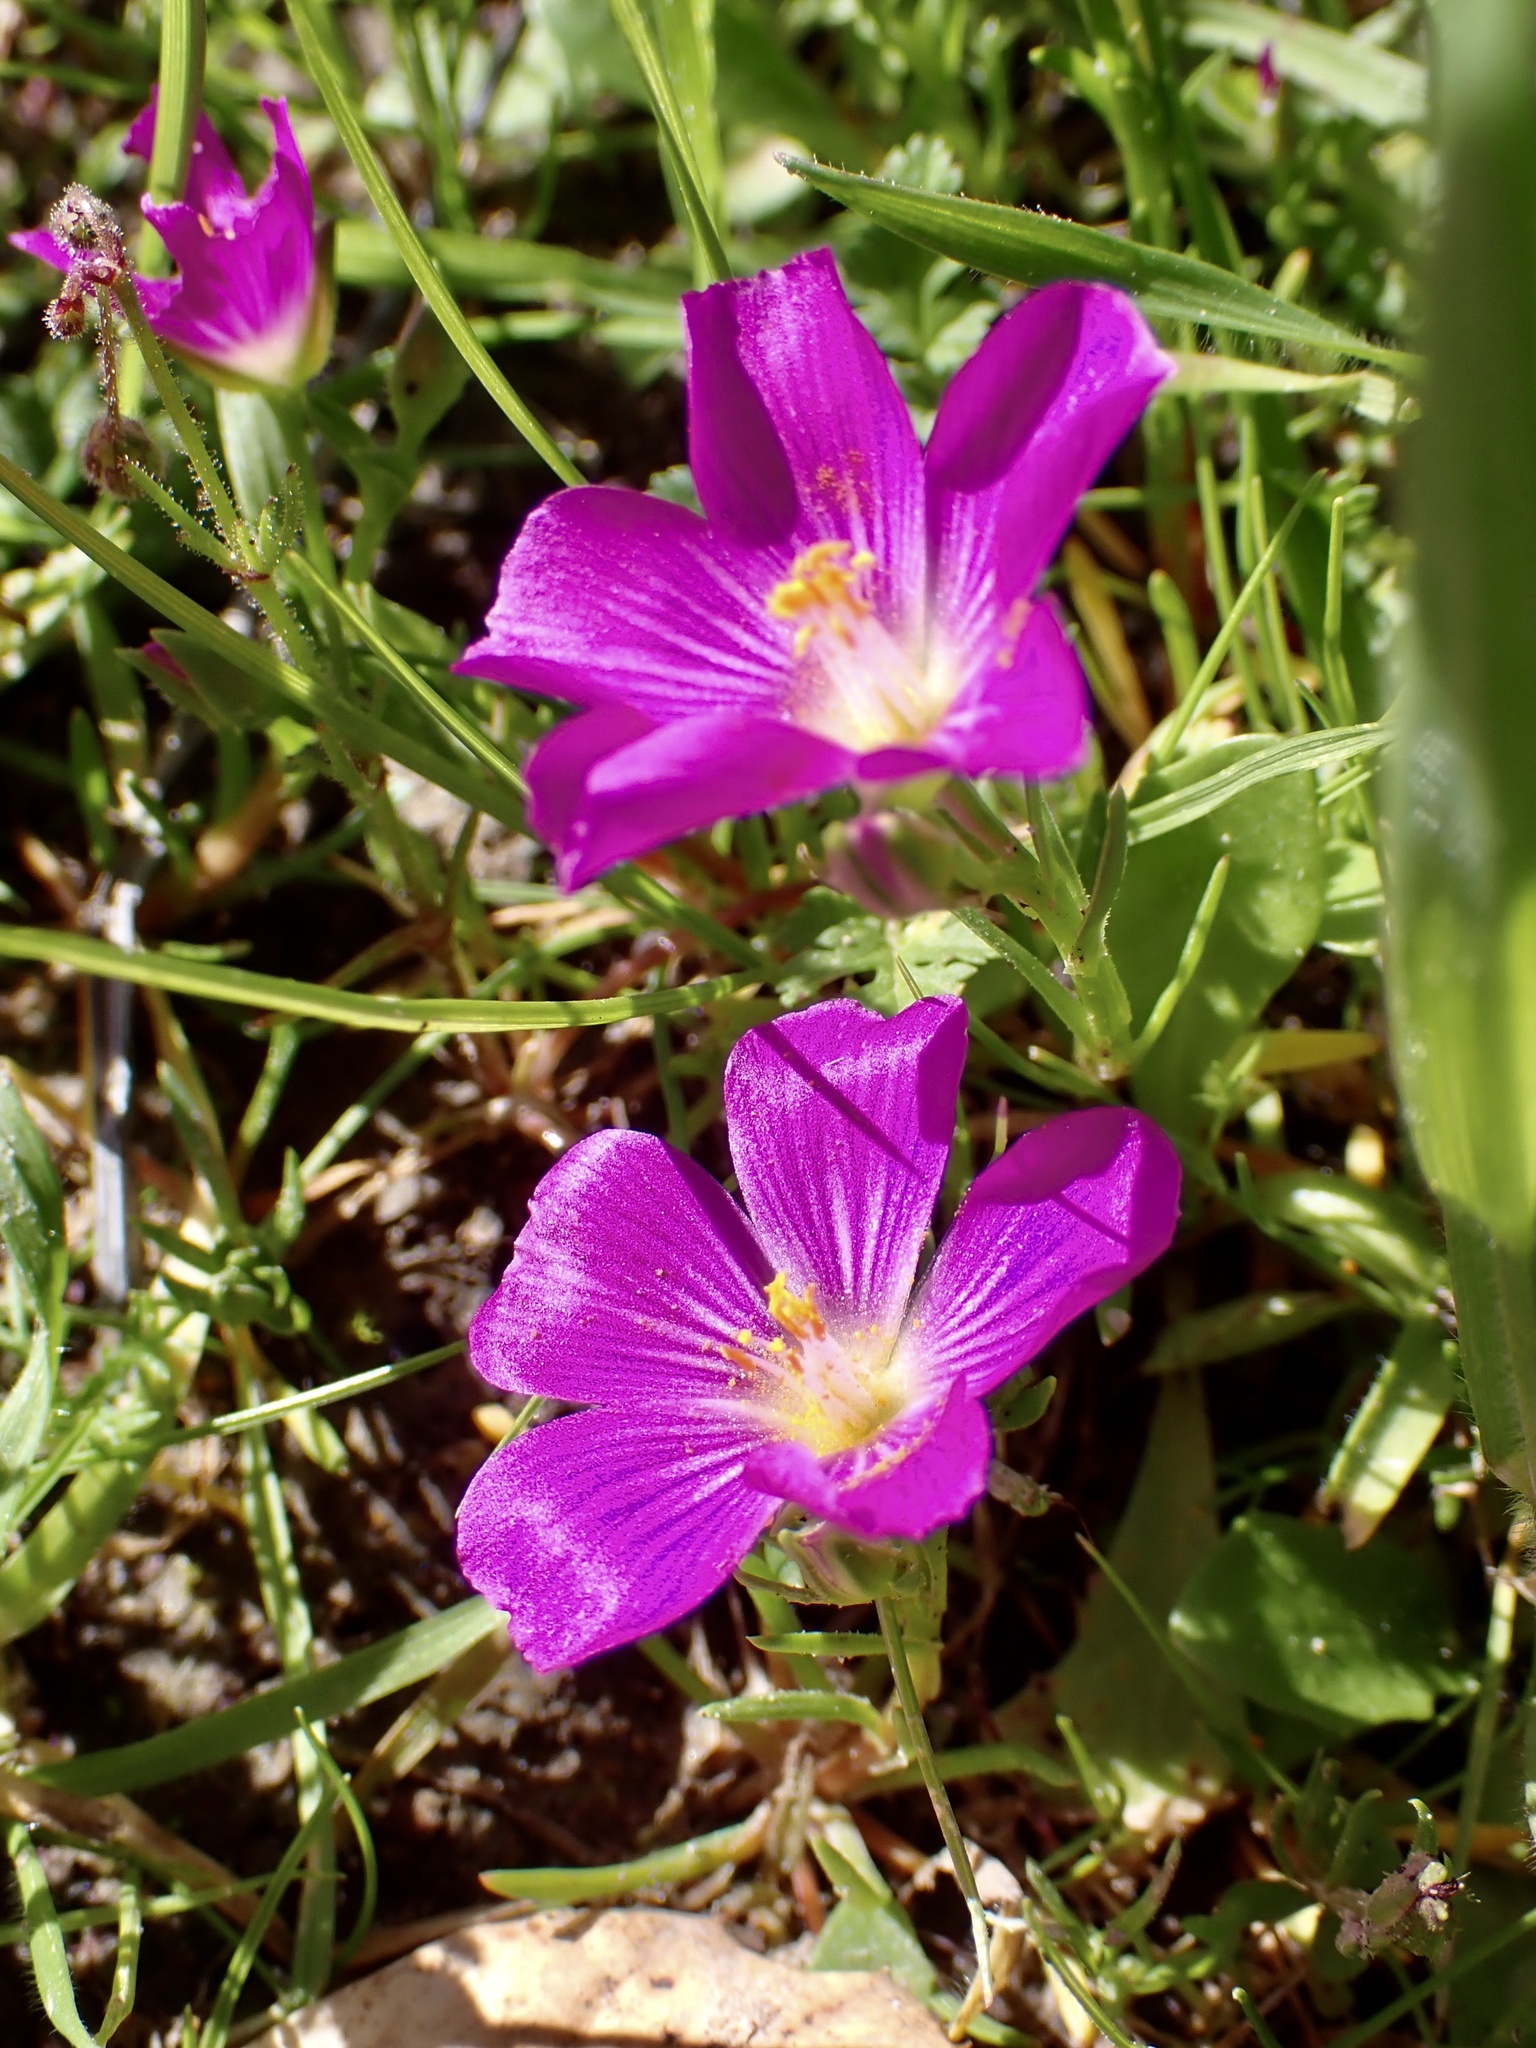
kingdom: Plantae
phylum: Tracheophyta
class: Magnoliopsida
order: Caryophyllales
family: Montiaceae
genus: Calandrinia
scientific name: Calandrinia menziesii
